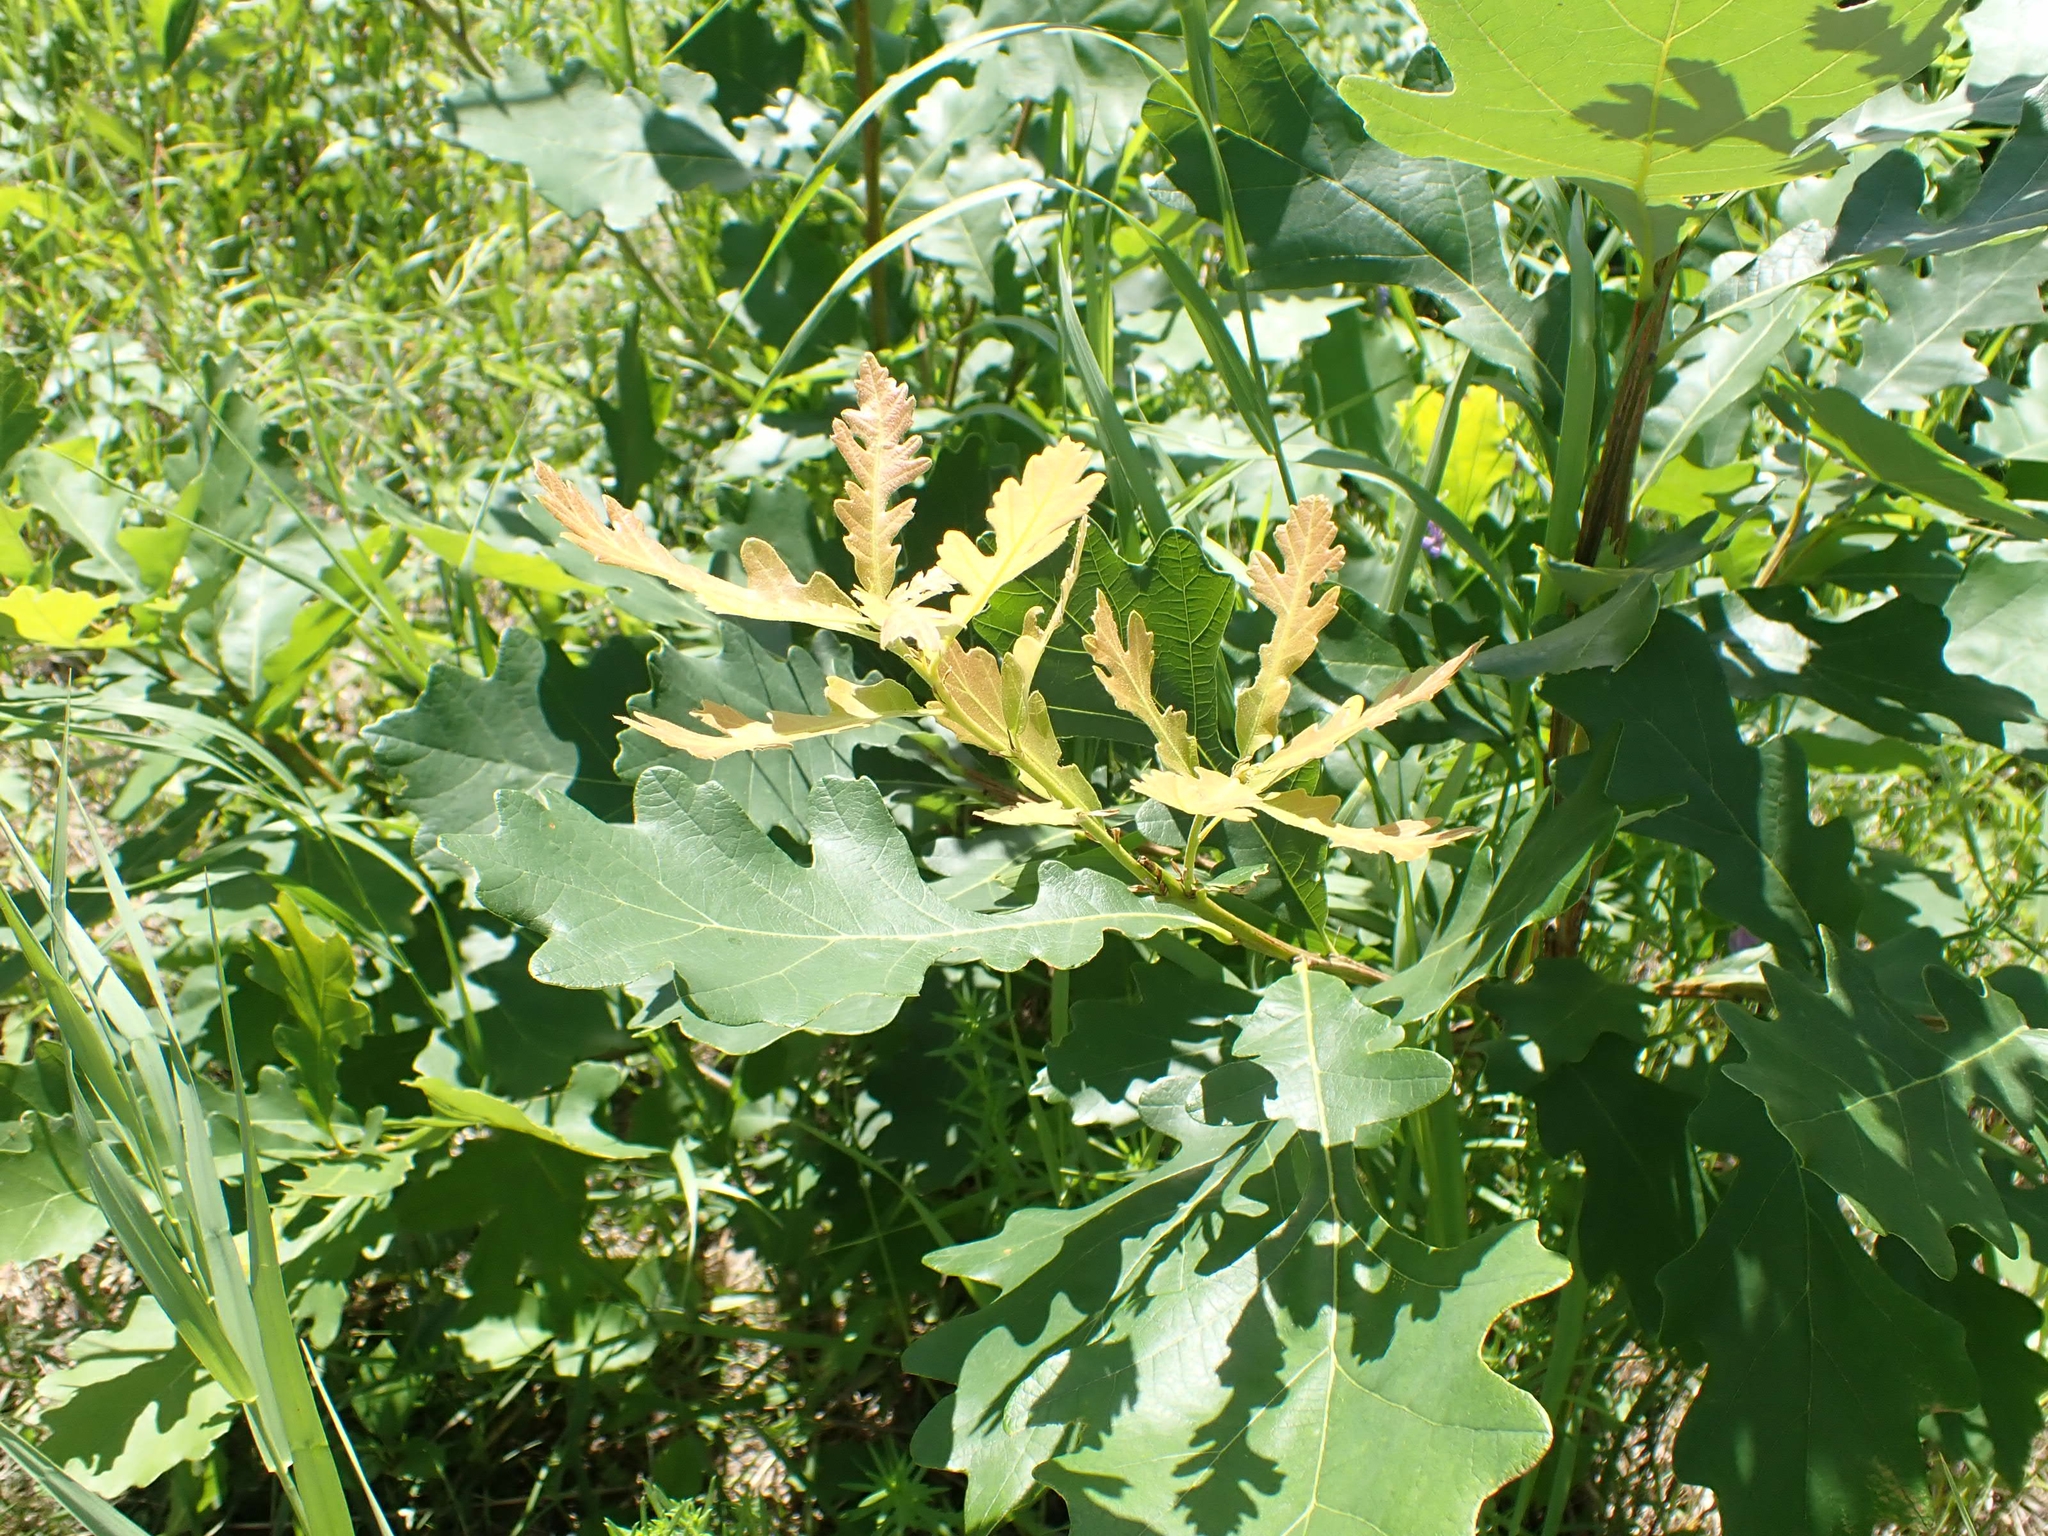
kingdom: Plantae
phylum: Tracheophyta
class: Magnoliopsida
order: Fagales
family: Fagaceae
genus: Quercus
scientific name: Quercus macrocarpa
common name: Bur oak
